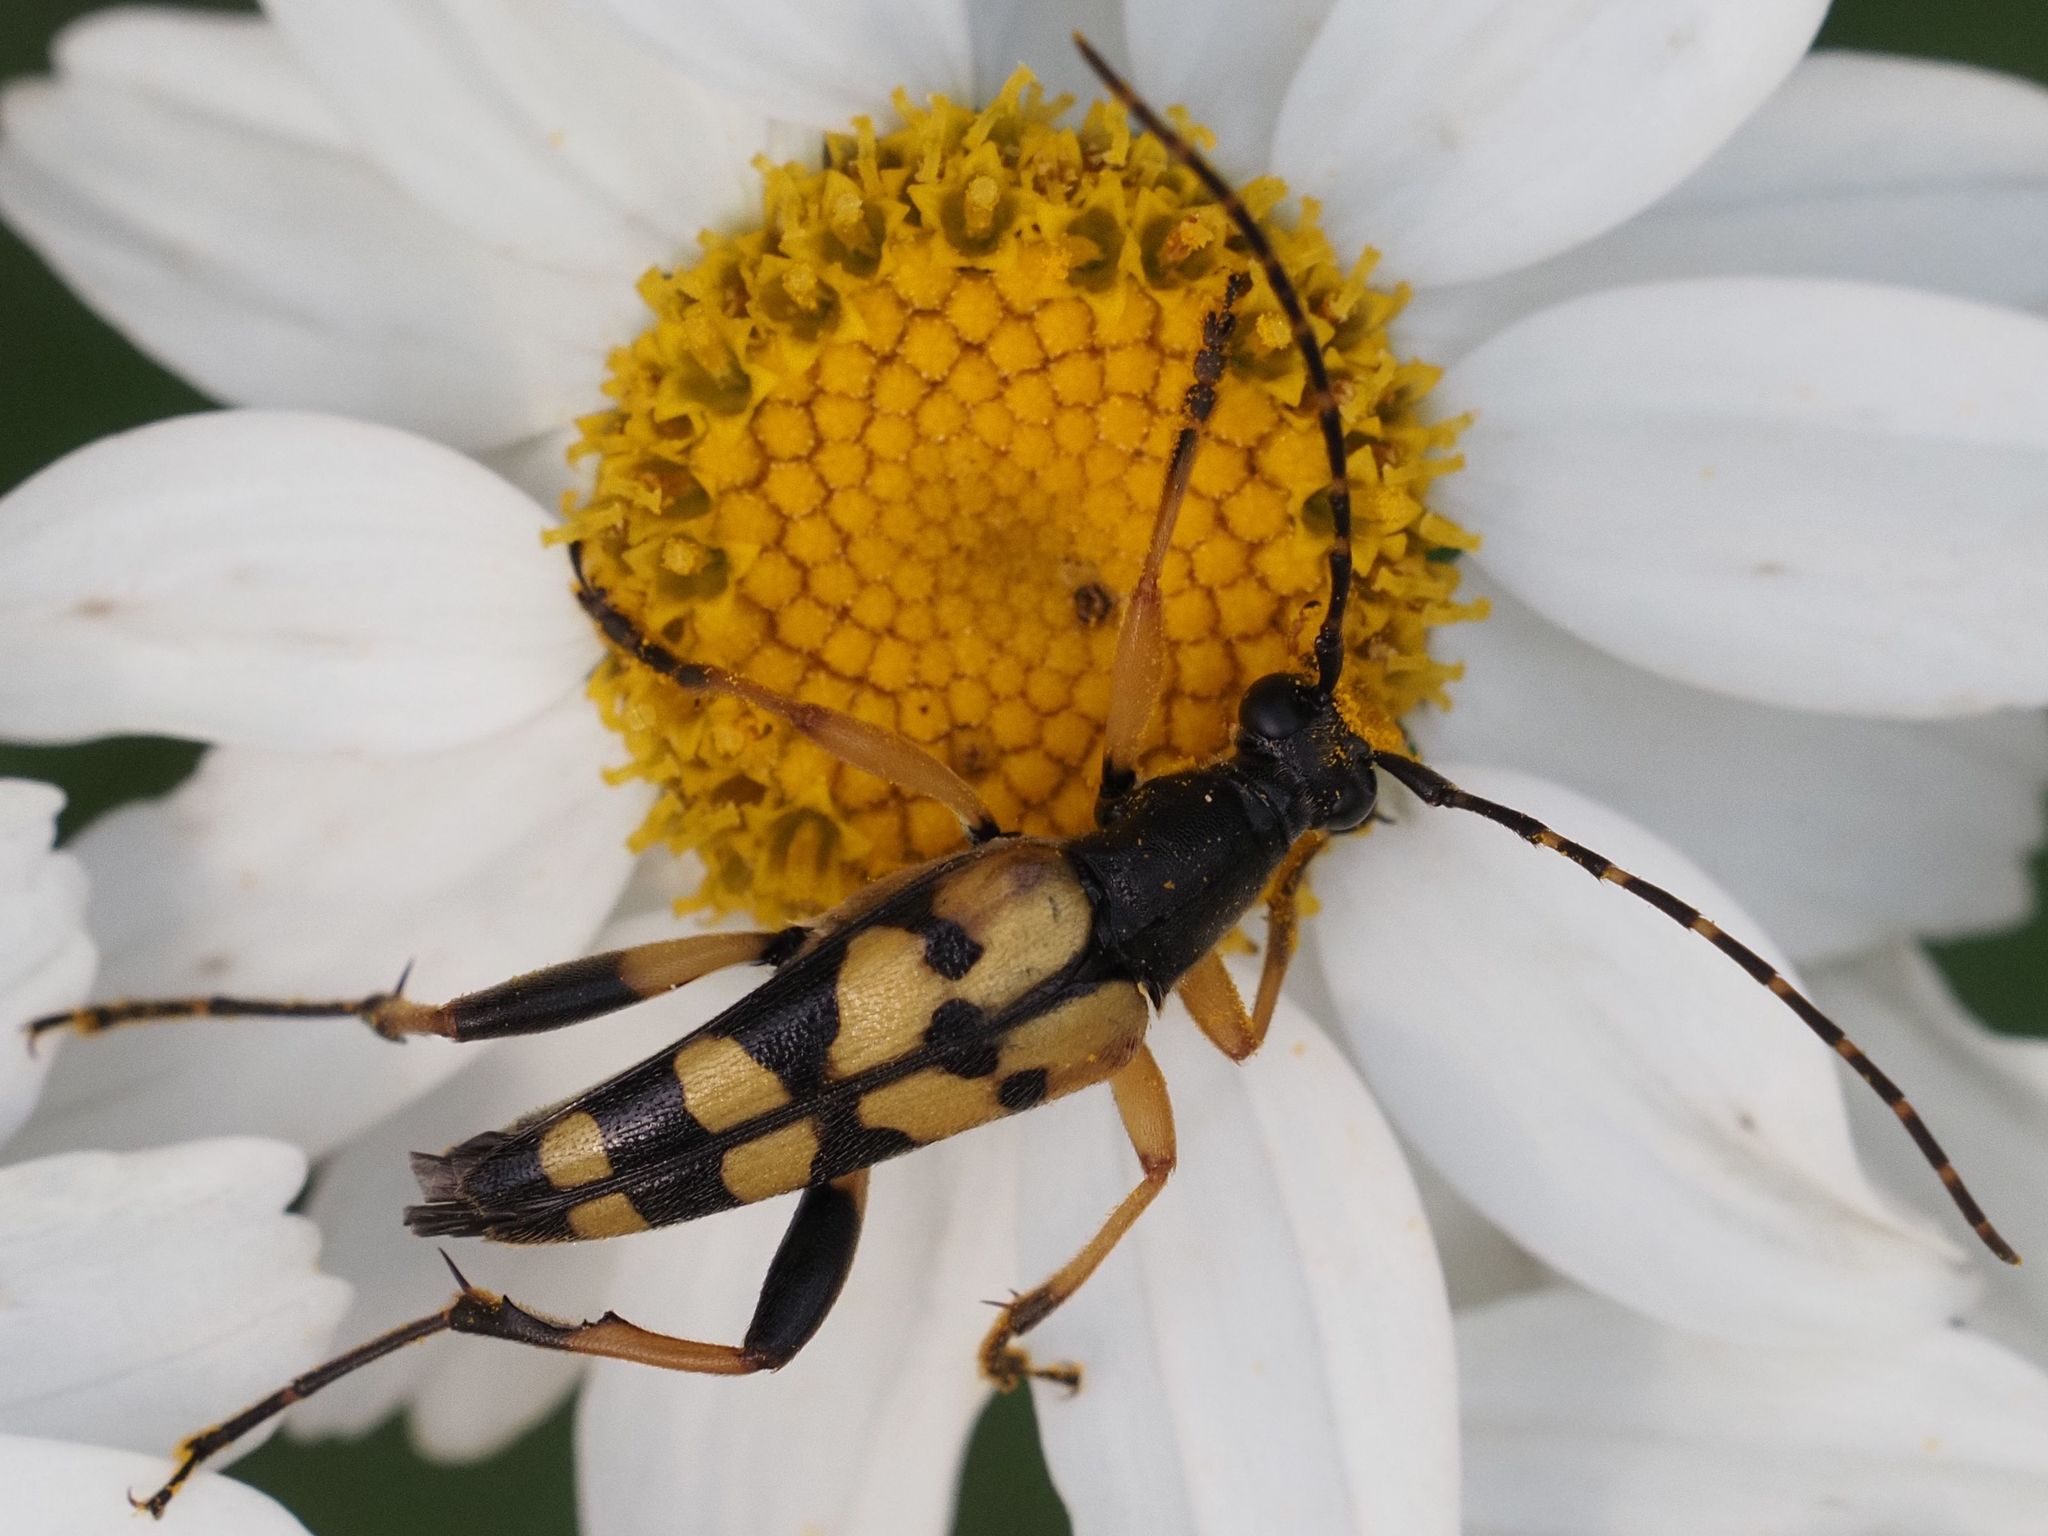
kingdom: Animalia
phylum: Arthropoda
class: Insecta
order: Coleoptera
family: Cerambycidae
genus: Rutpela
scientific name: Rutpela maculata
